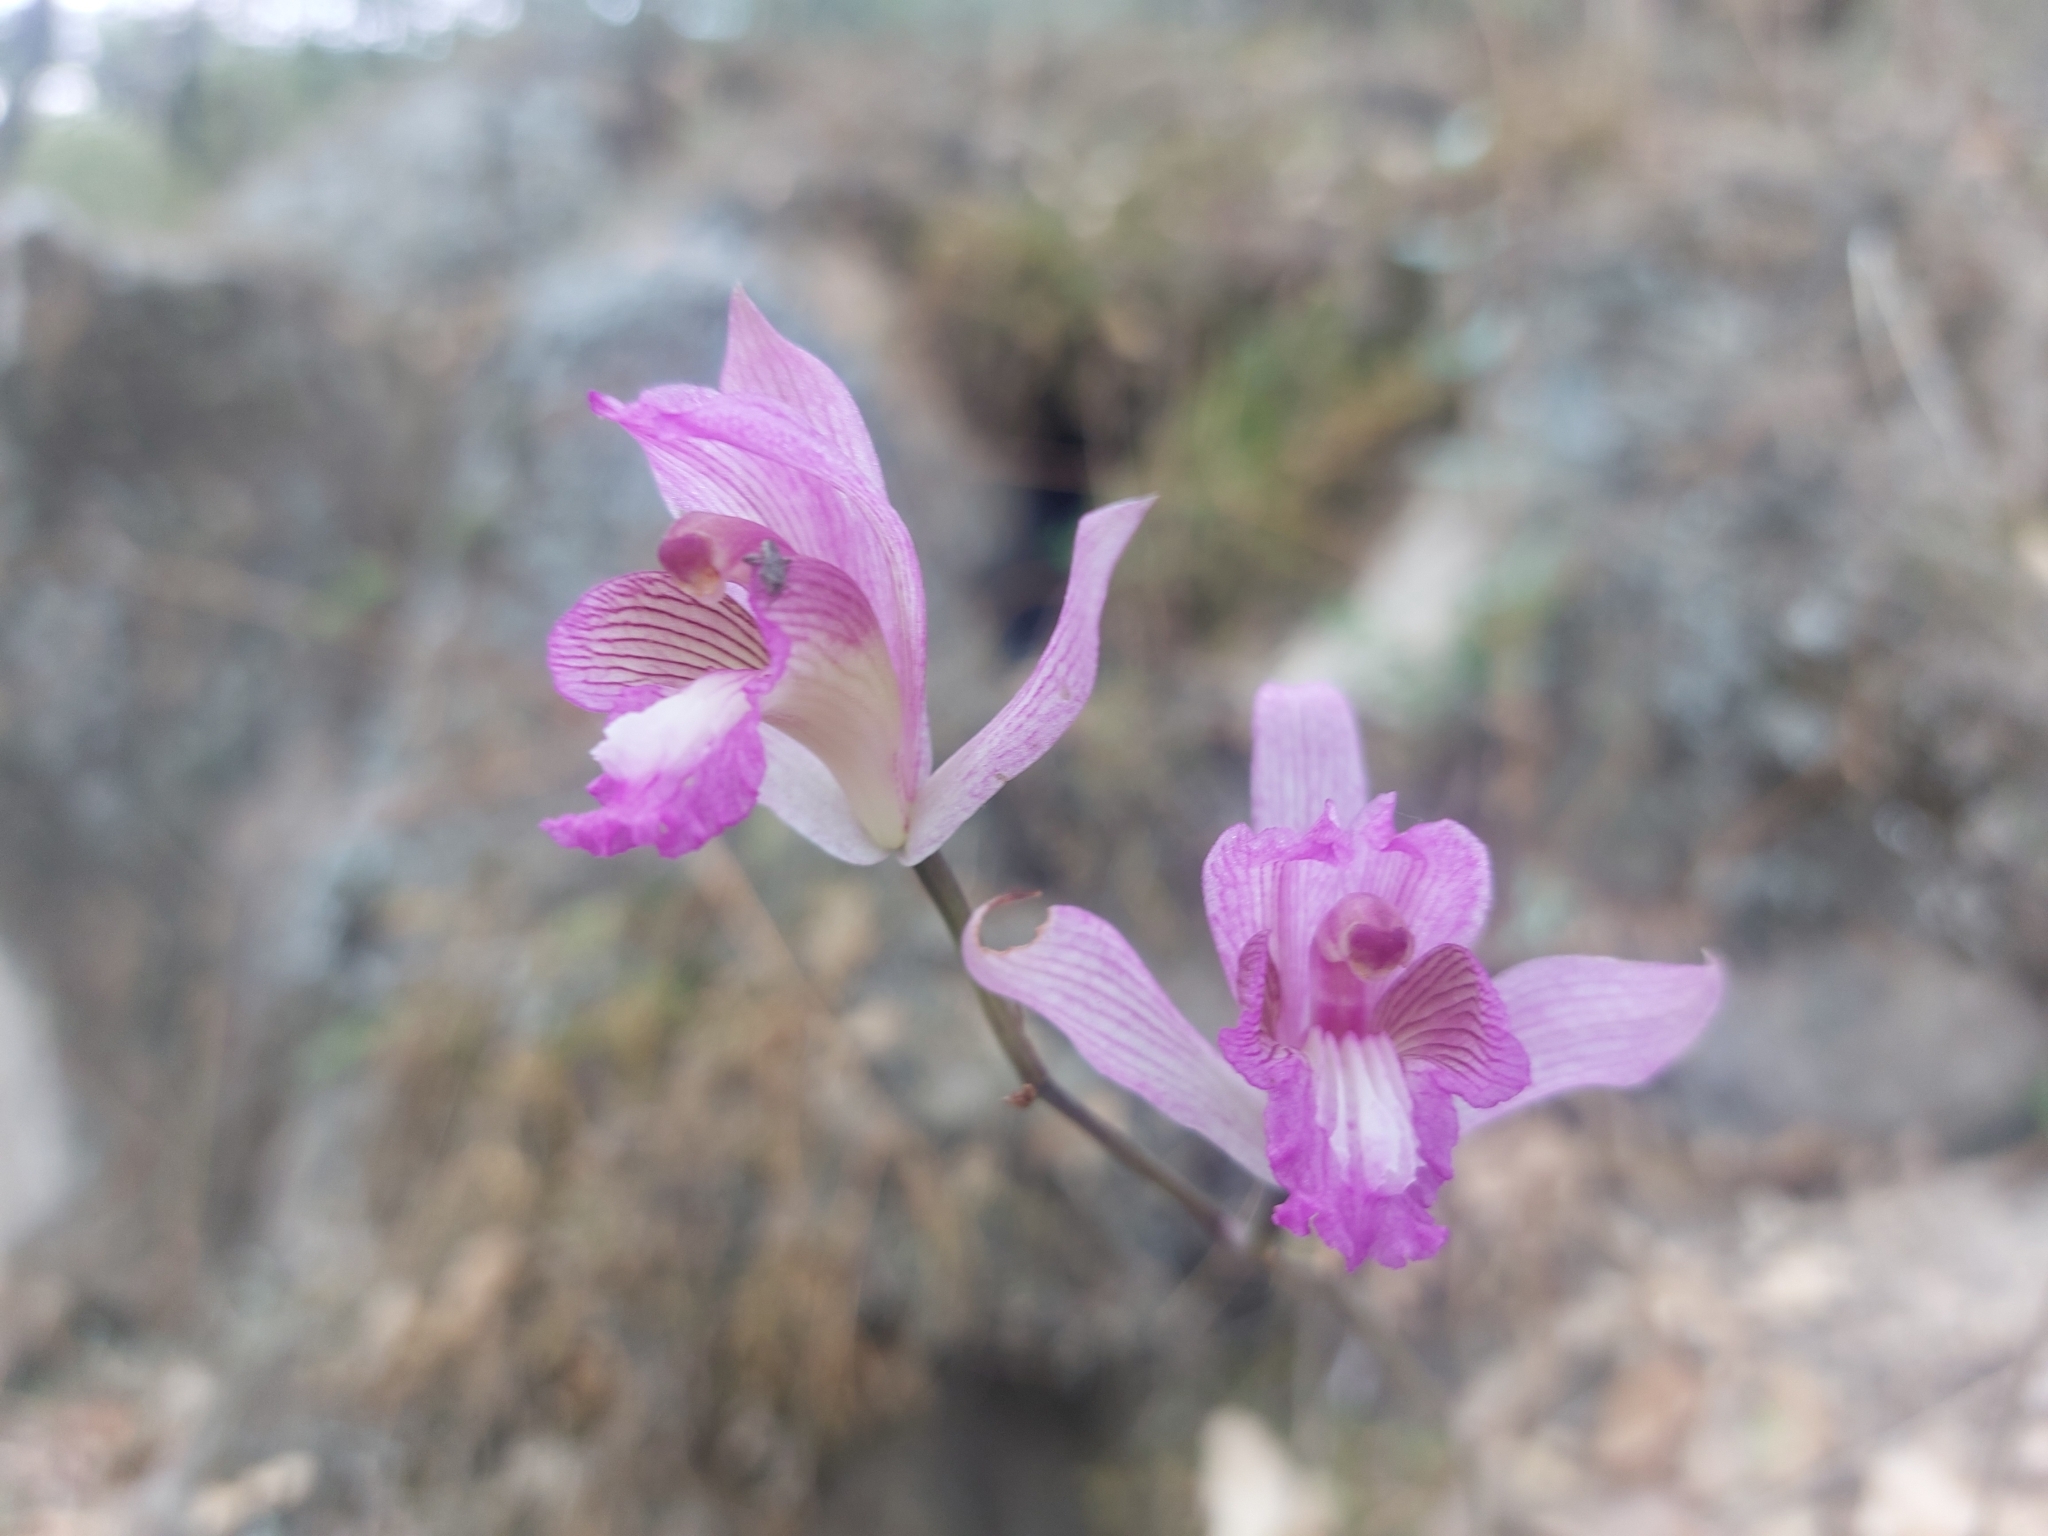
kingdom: Plantae
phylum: Tracheophyta
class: Liliopsida
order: Asparagales
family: Orchidaceae
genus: Bletia
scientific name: Bletia neglecta
